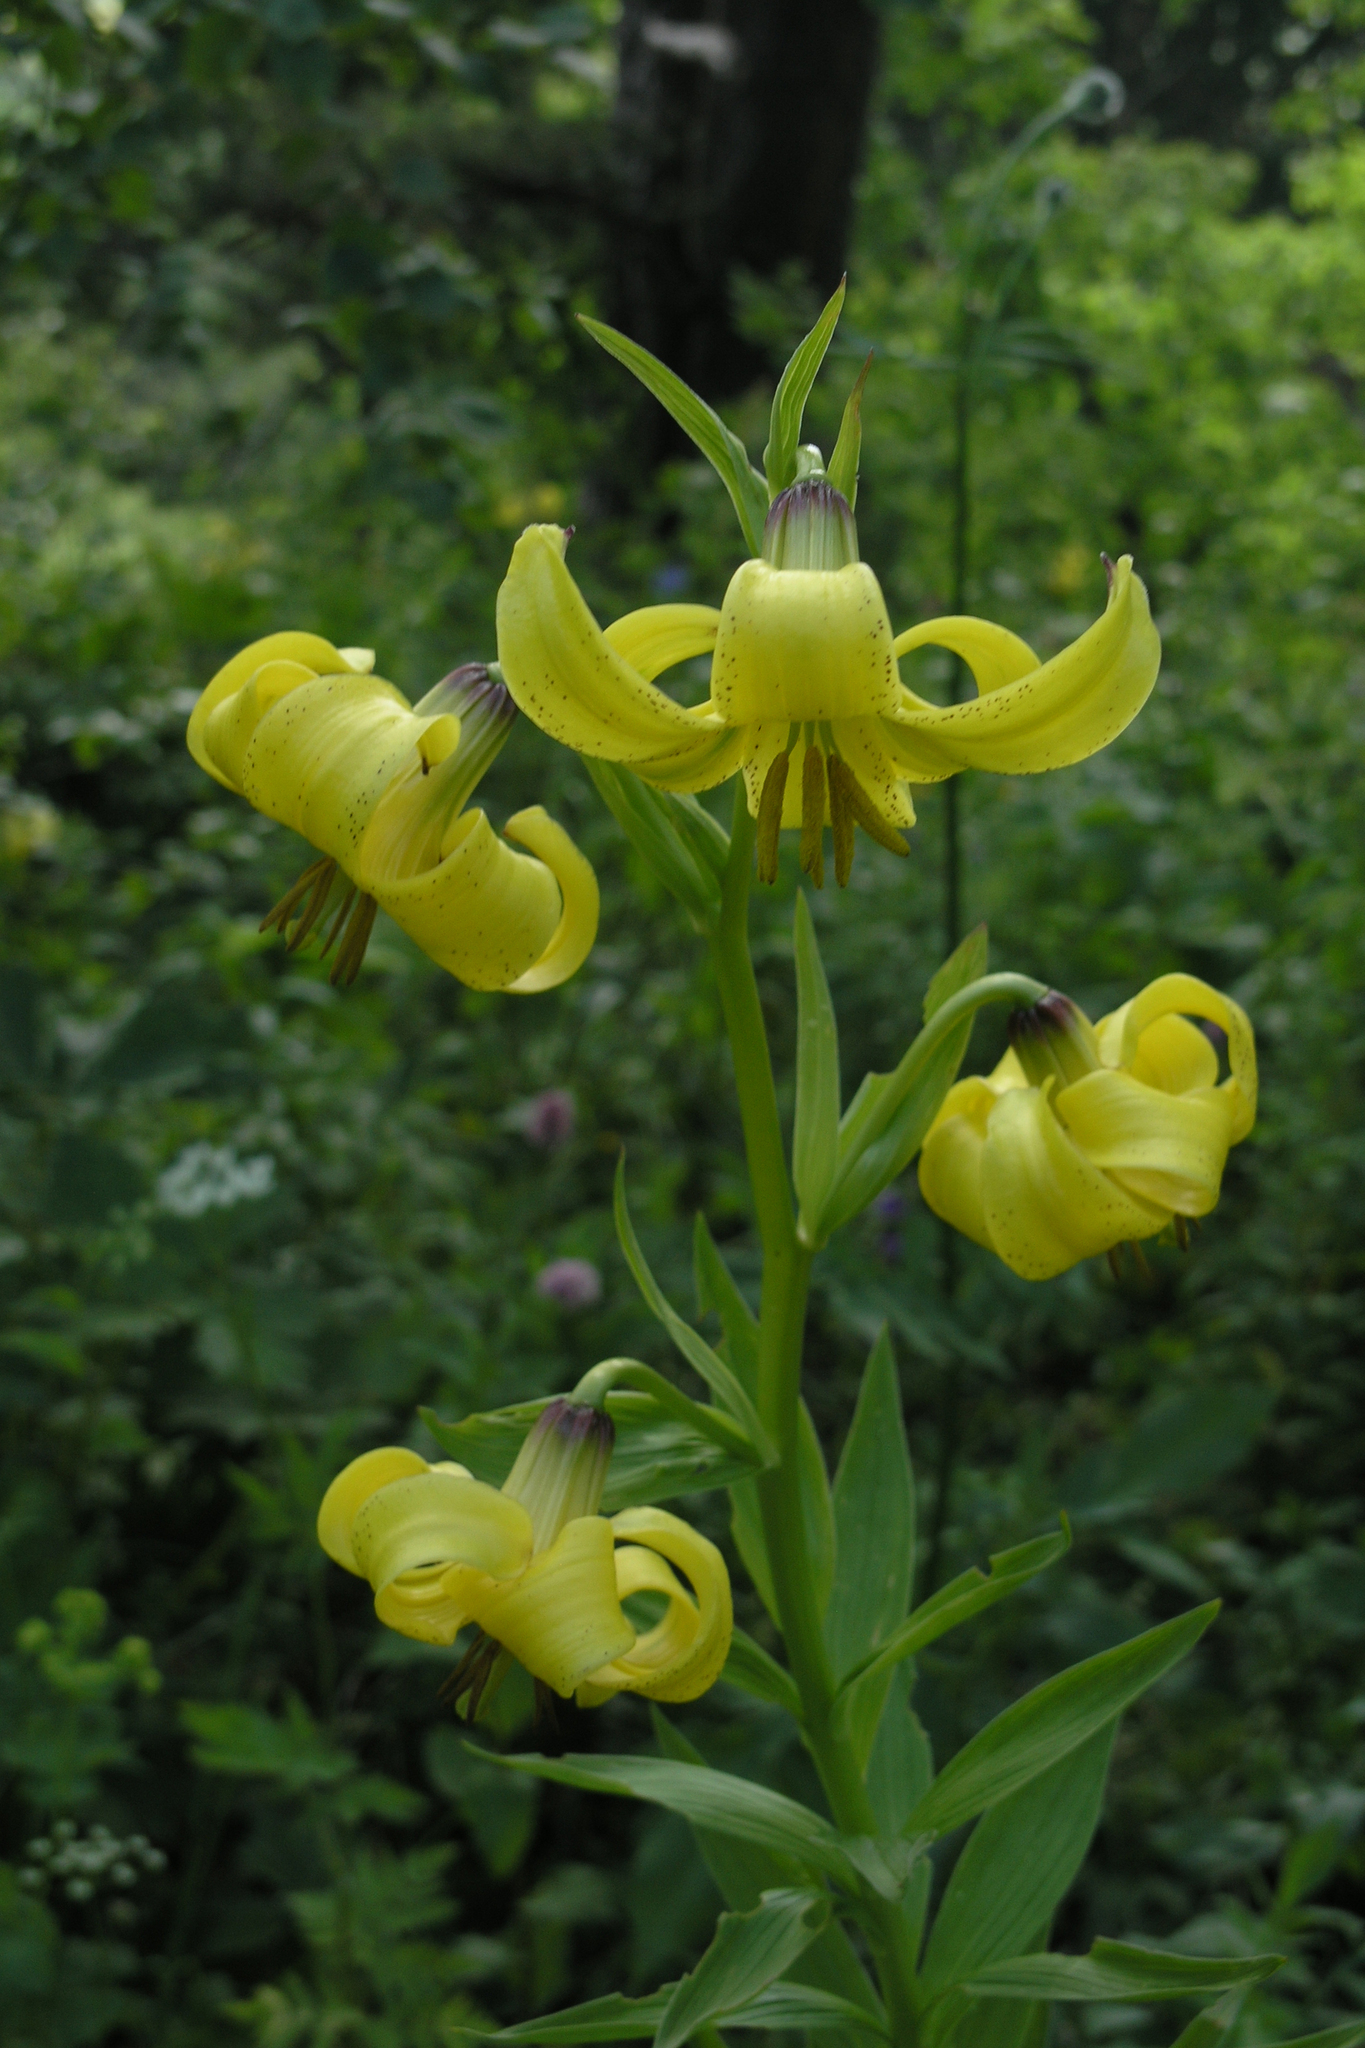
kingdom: Plantae
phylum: Tracheophyta
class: Liliopsida
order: Liliales
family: Liliaceae
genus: Lilium
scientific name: Lilium kesselringianum
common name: Kesselring lily
